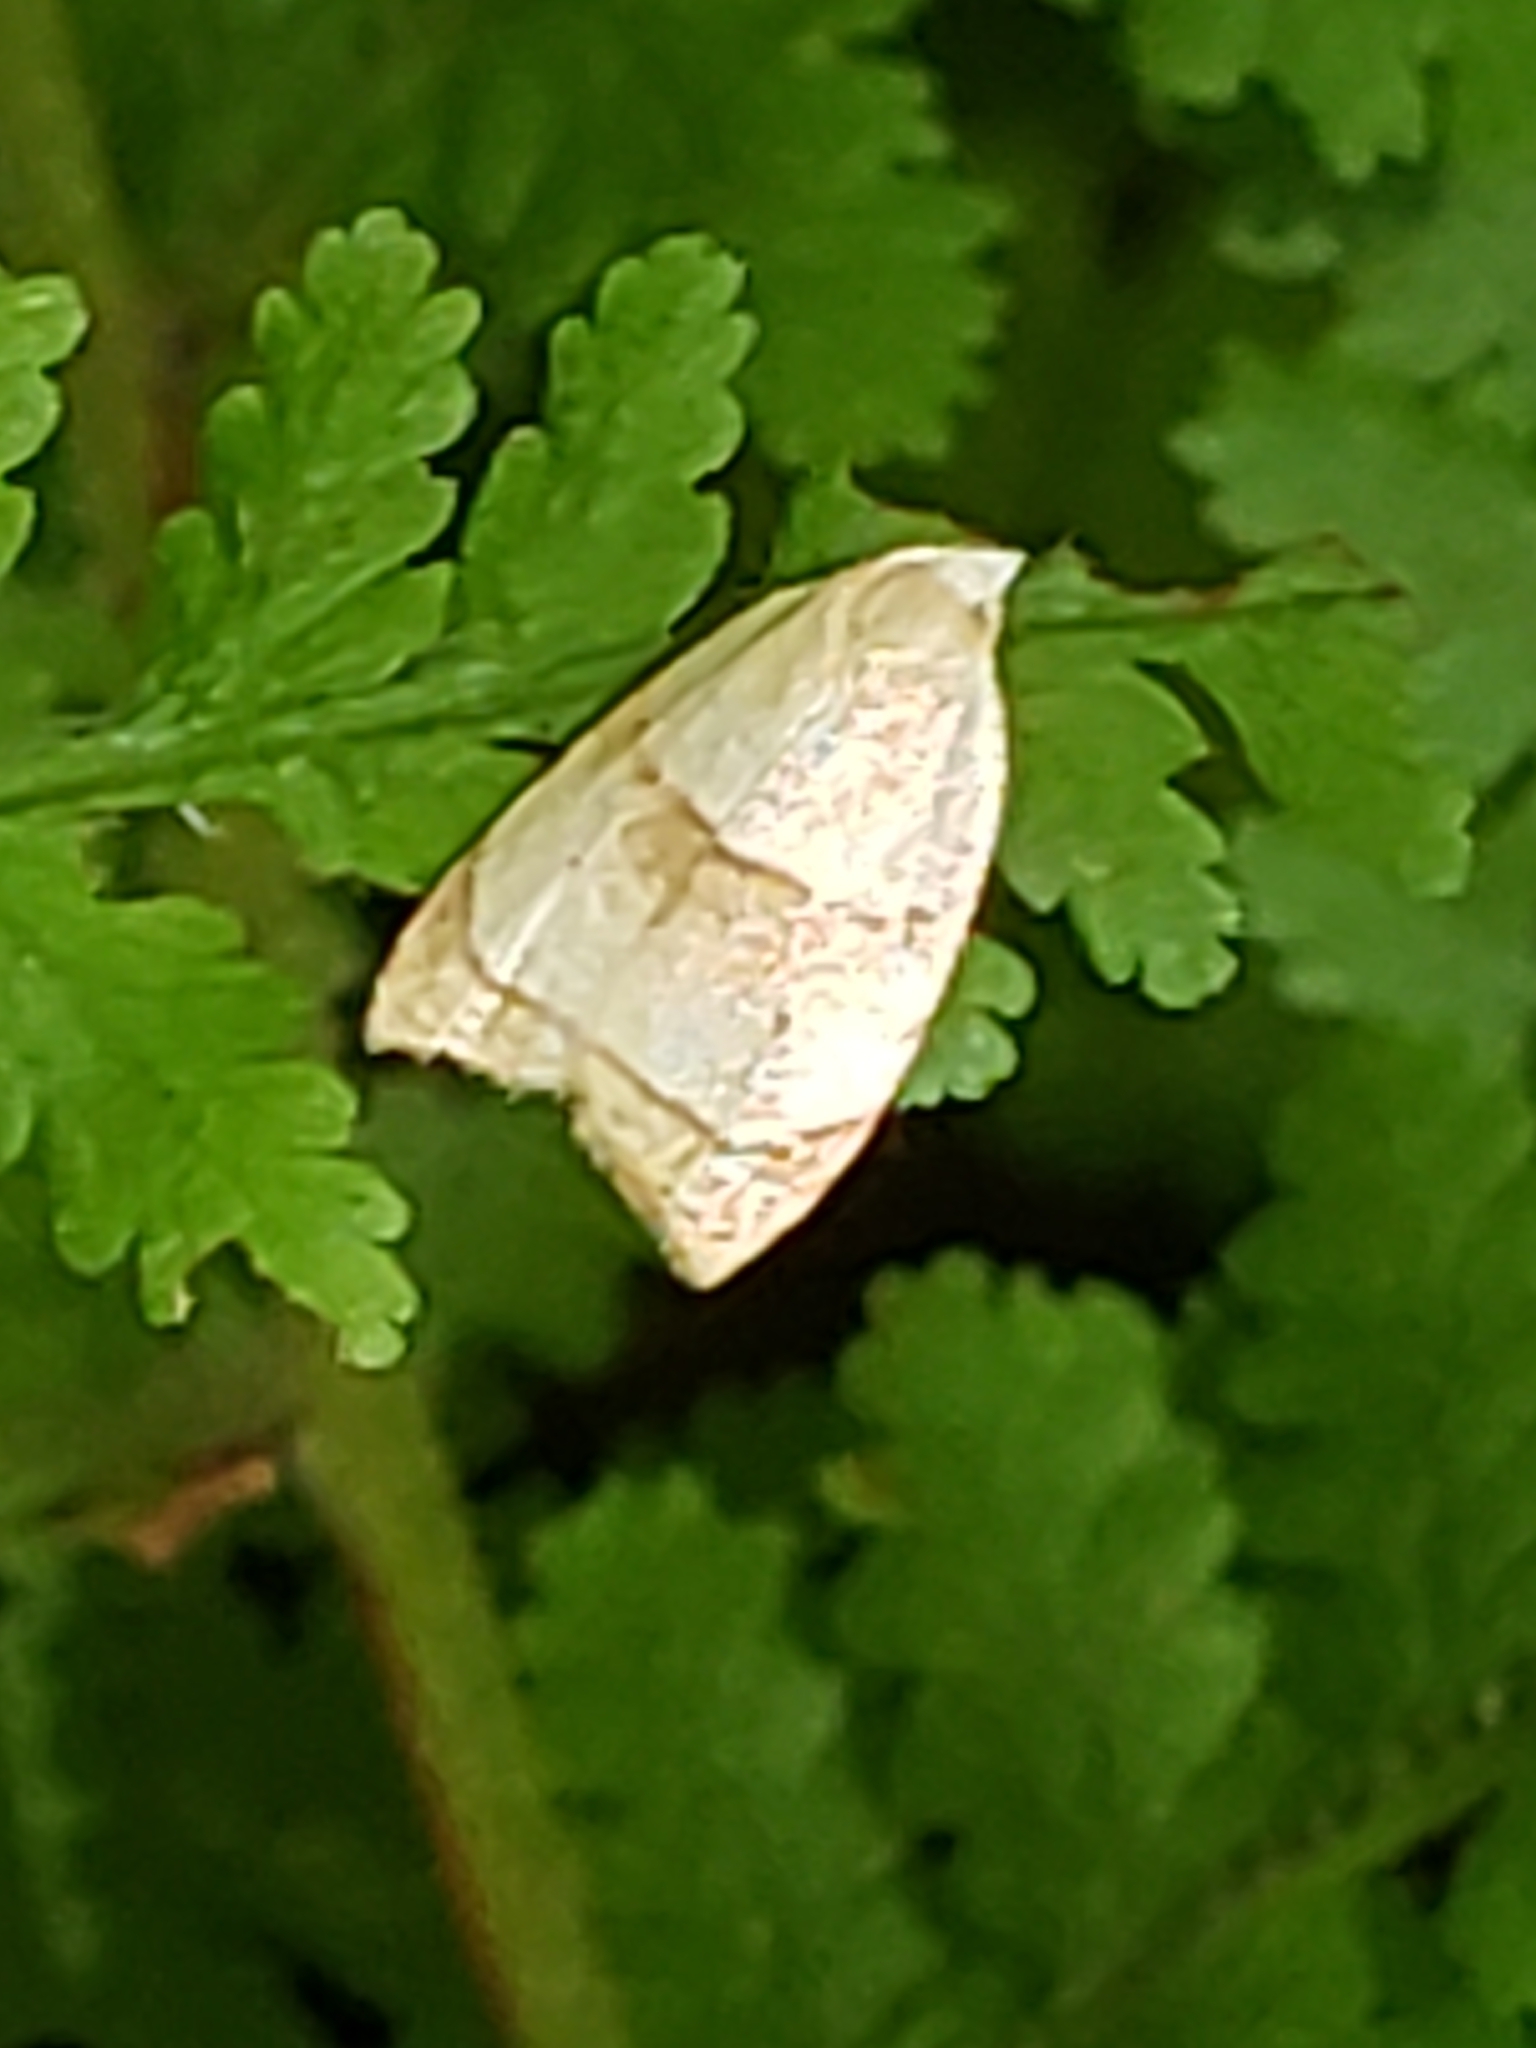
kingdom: Animalia
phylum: Arthropoda
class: Insecta
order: Lepidoptera
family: Tortricidae
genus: Coelostathma
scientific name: Coelostathma discopunctana
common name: Batman moth
